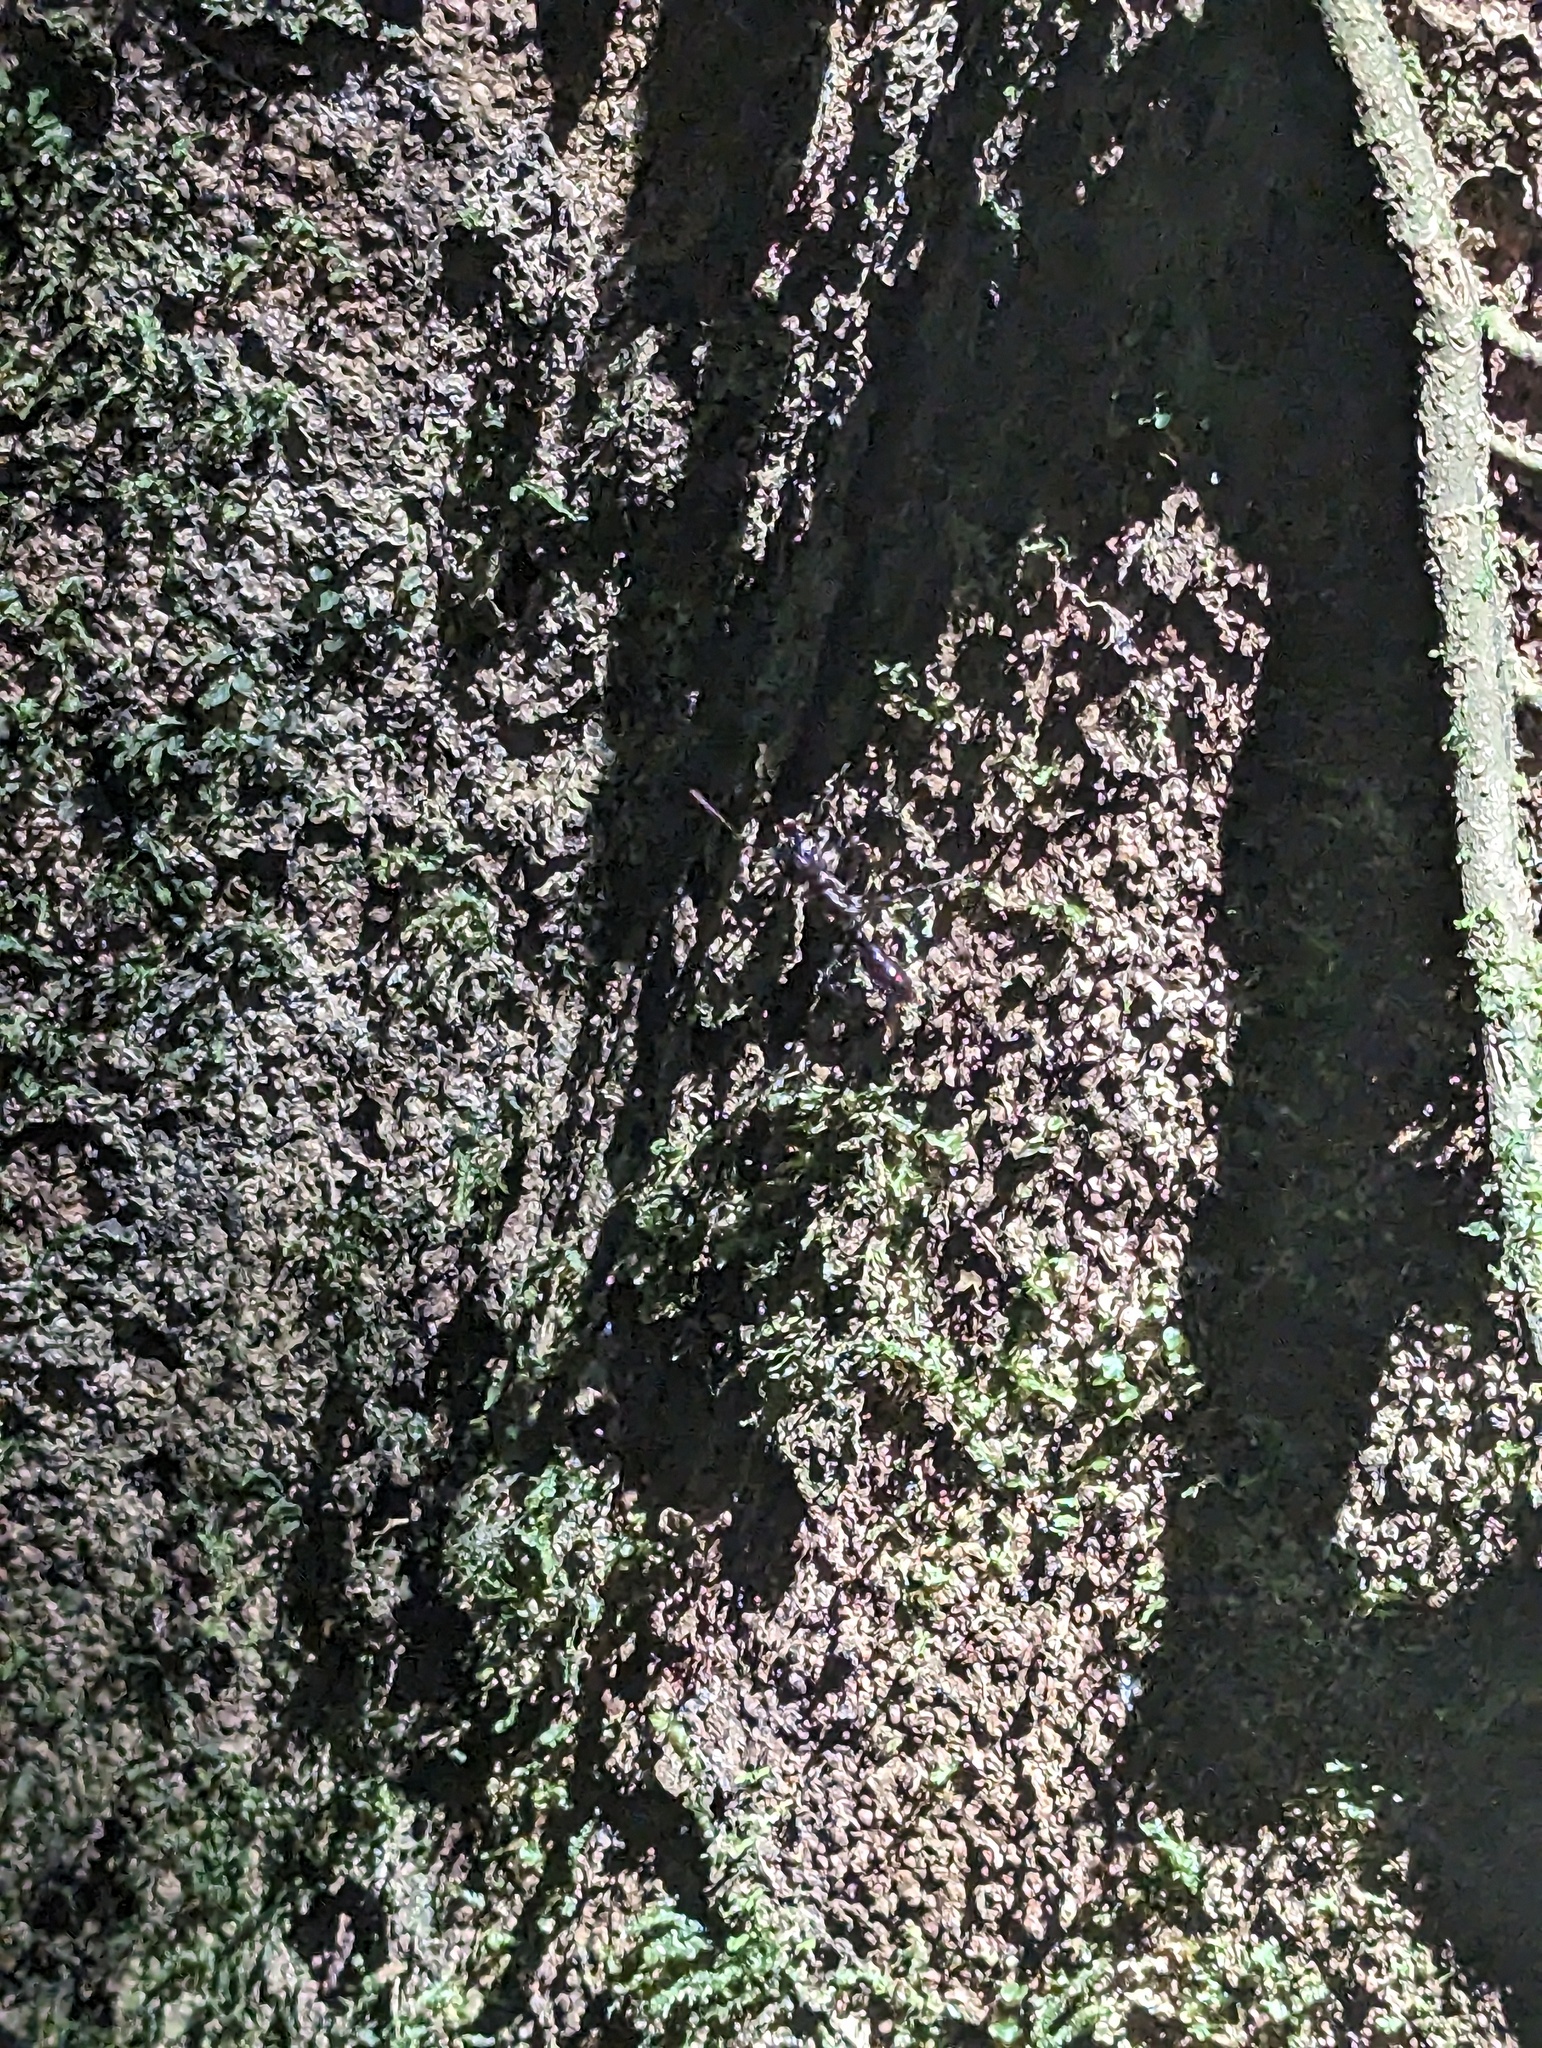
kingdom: Animalia
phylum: Arthropoda
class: Insecta
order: Hymenoptera
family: Formicidae
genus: Paraponera
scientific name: Paraponera clavata
